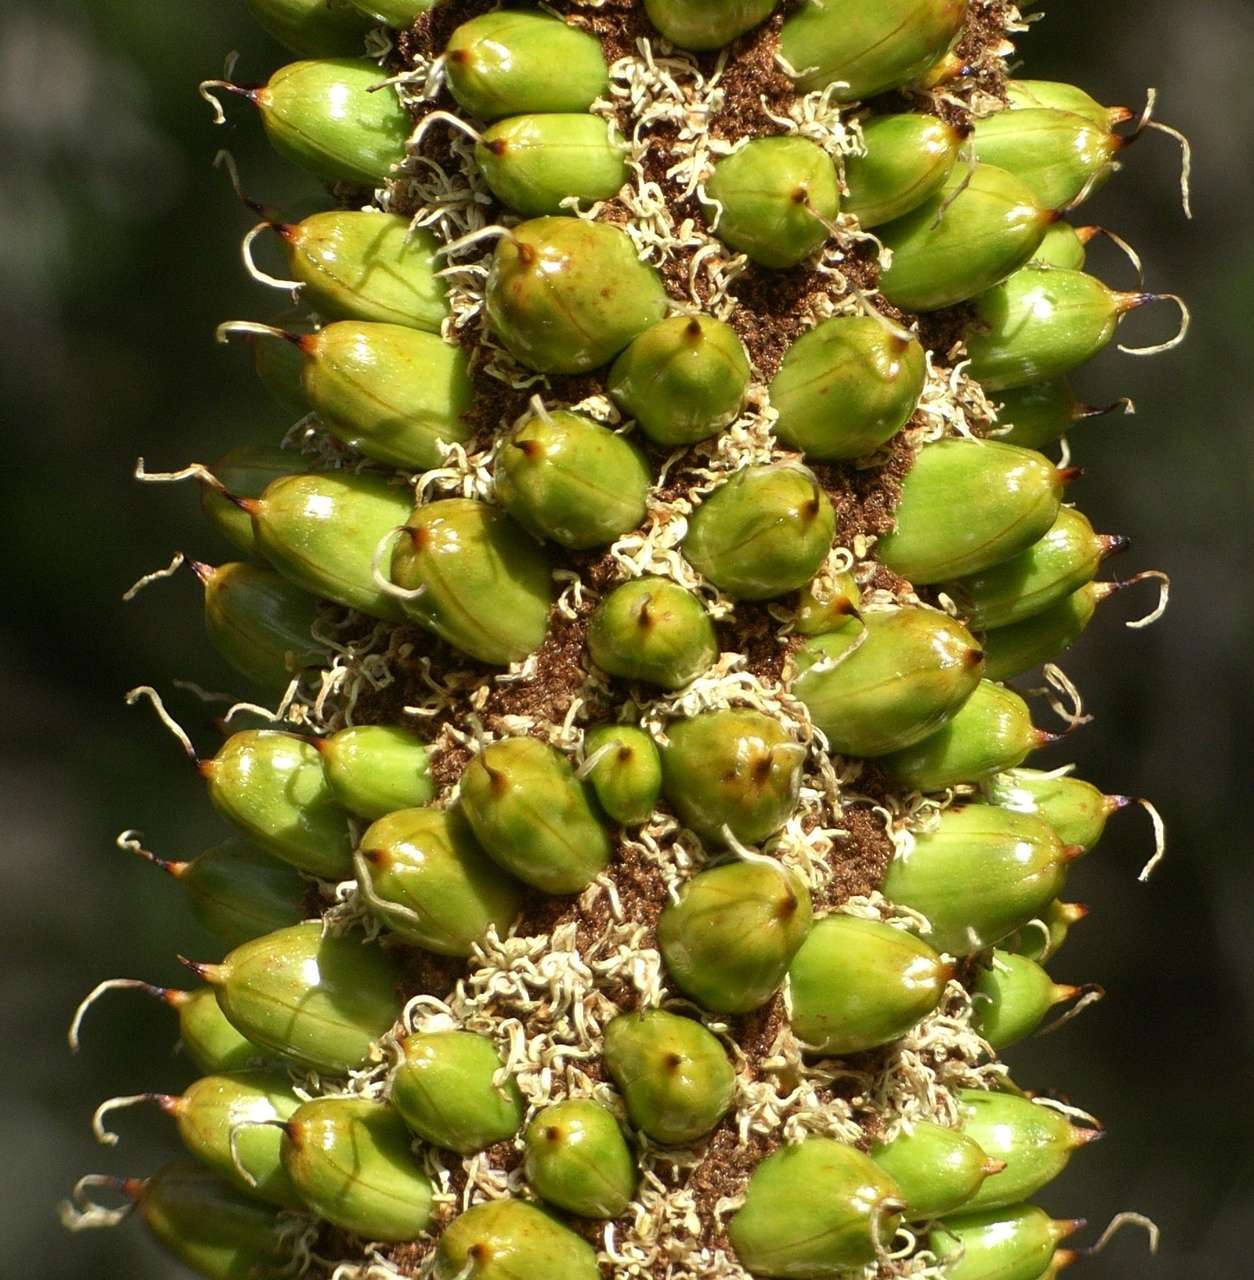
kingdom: Plantae
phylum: Tracheophyta
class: Liliopsida
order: Asparagales
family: Asphodelaceae
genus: Xanthorrhoea
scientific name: Xanthorrhoea resinosa
